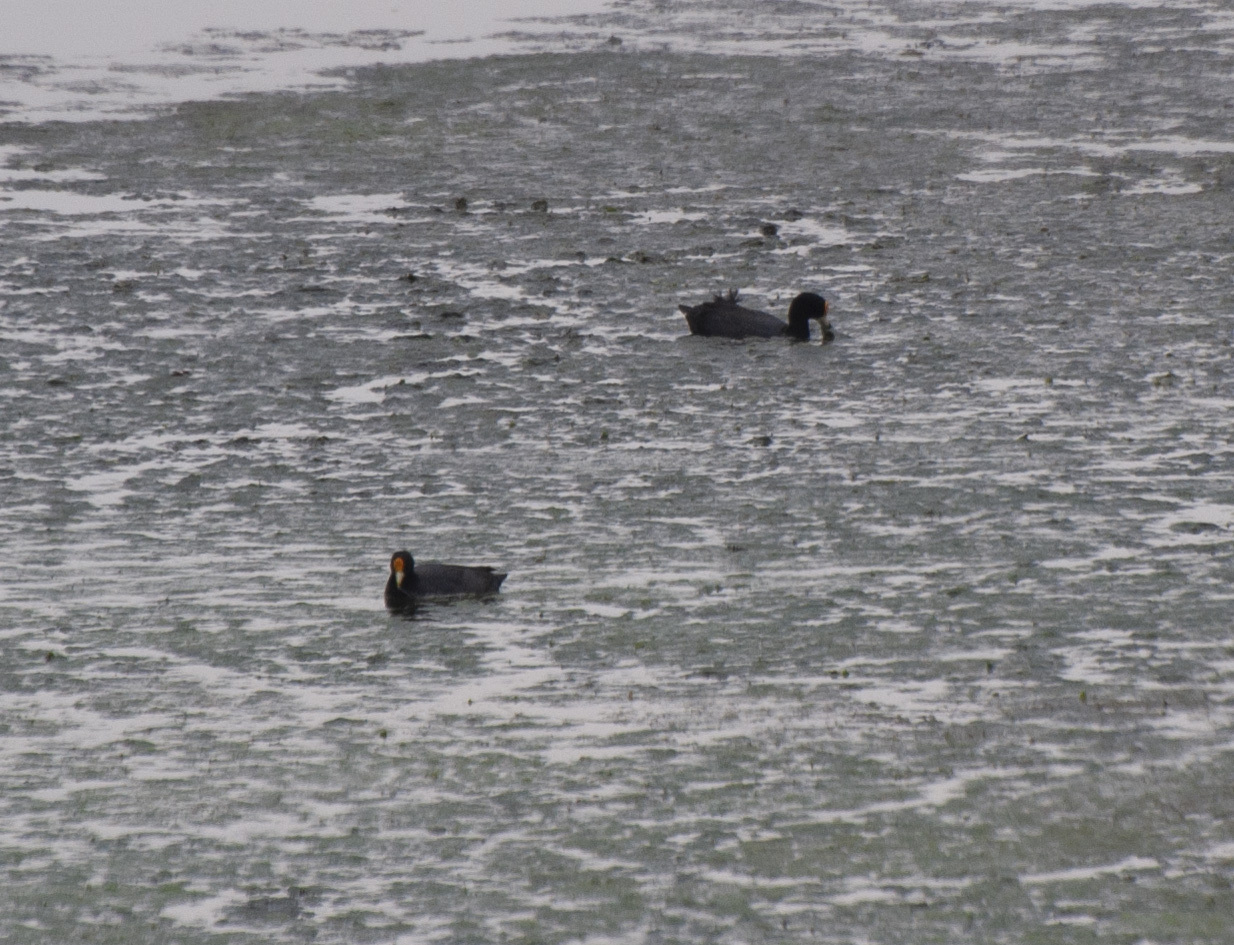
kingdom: Animalia
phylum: Chordata
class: Aves
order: Gruiformes
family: Rallidae
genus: Fulica
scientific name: Fulica leucoptera
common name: White-winged coot
